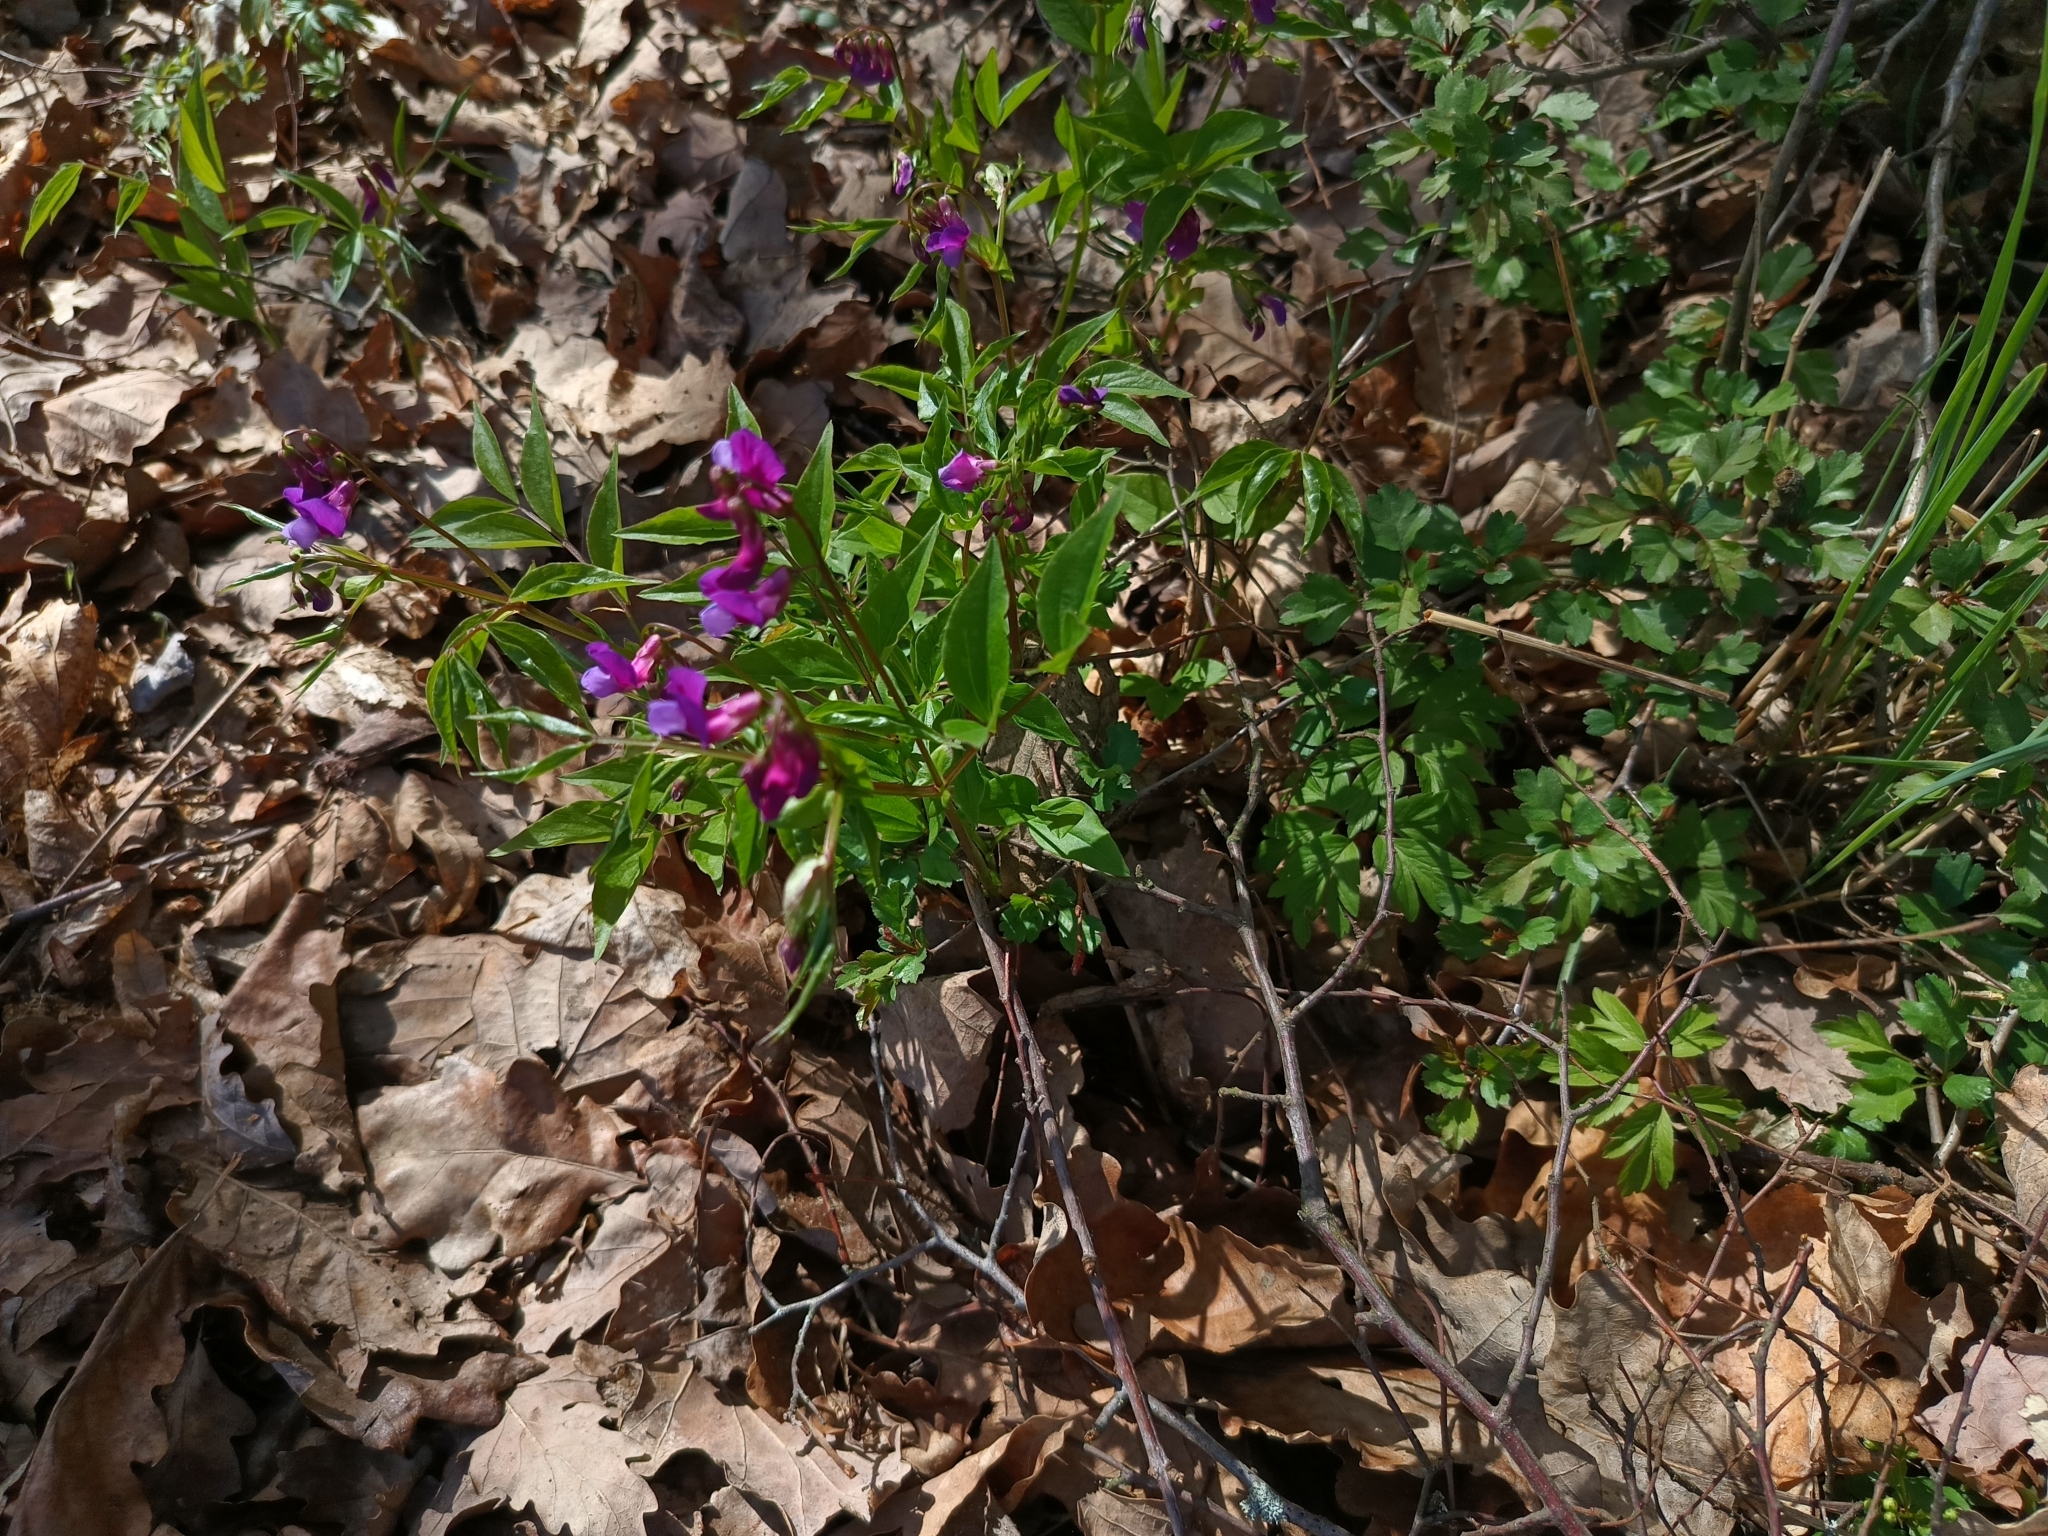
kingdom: Plantae
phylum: Tracheophyta
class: Magnoliopsida
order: Fabales
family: Fabaceae
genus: Lathyrus
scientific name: Lathyrus vernus
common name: Spring pea
